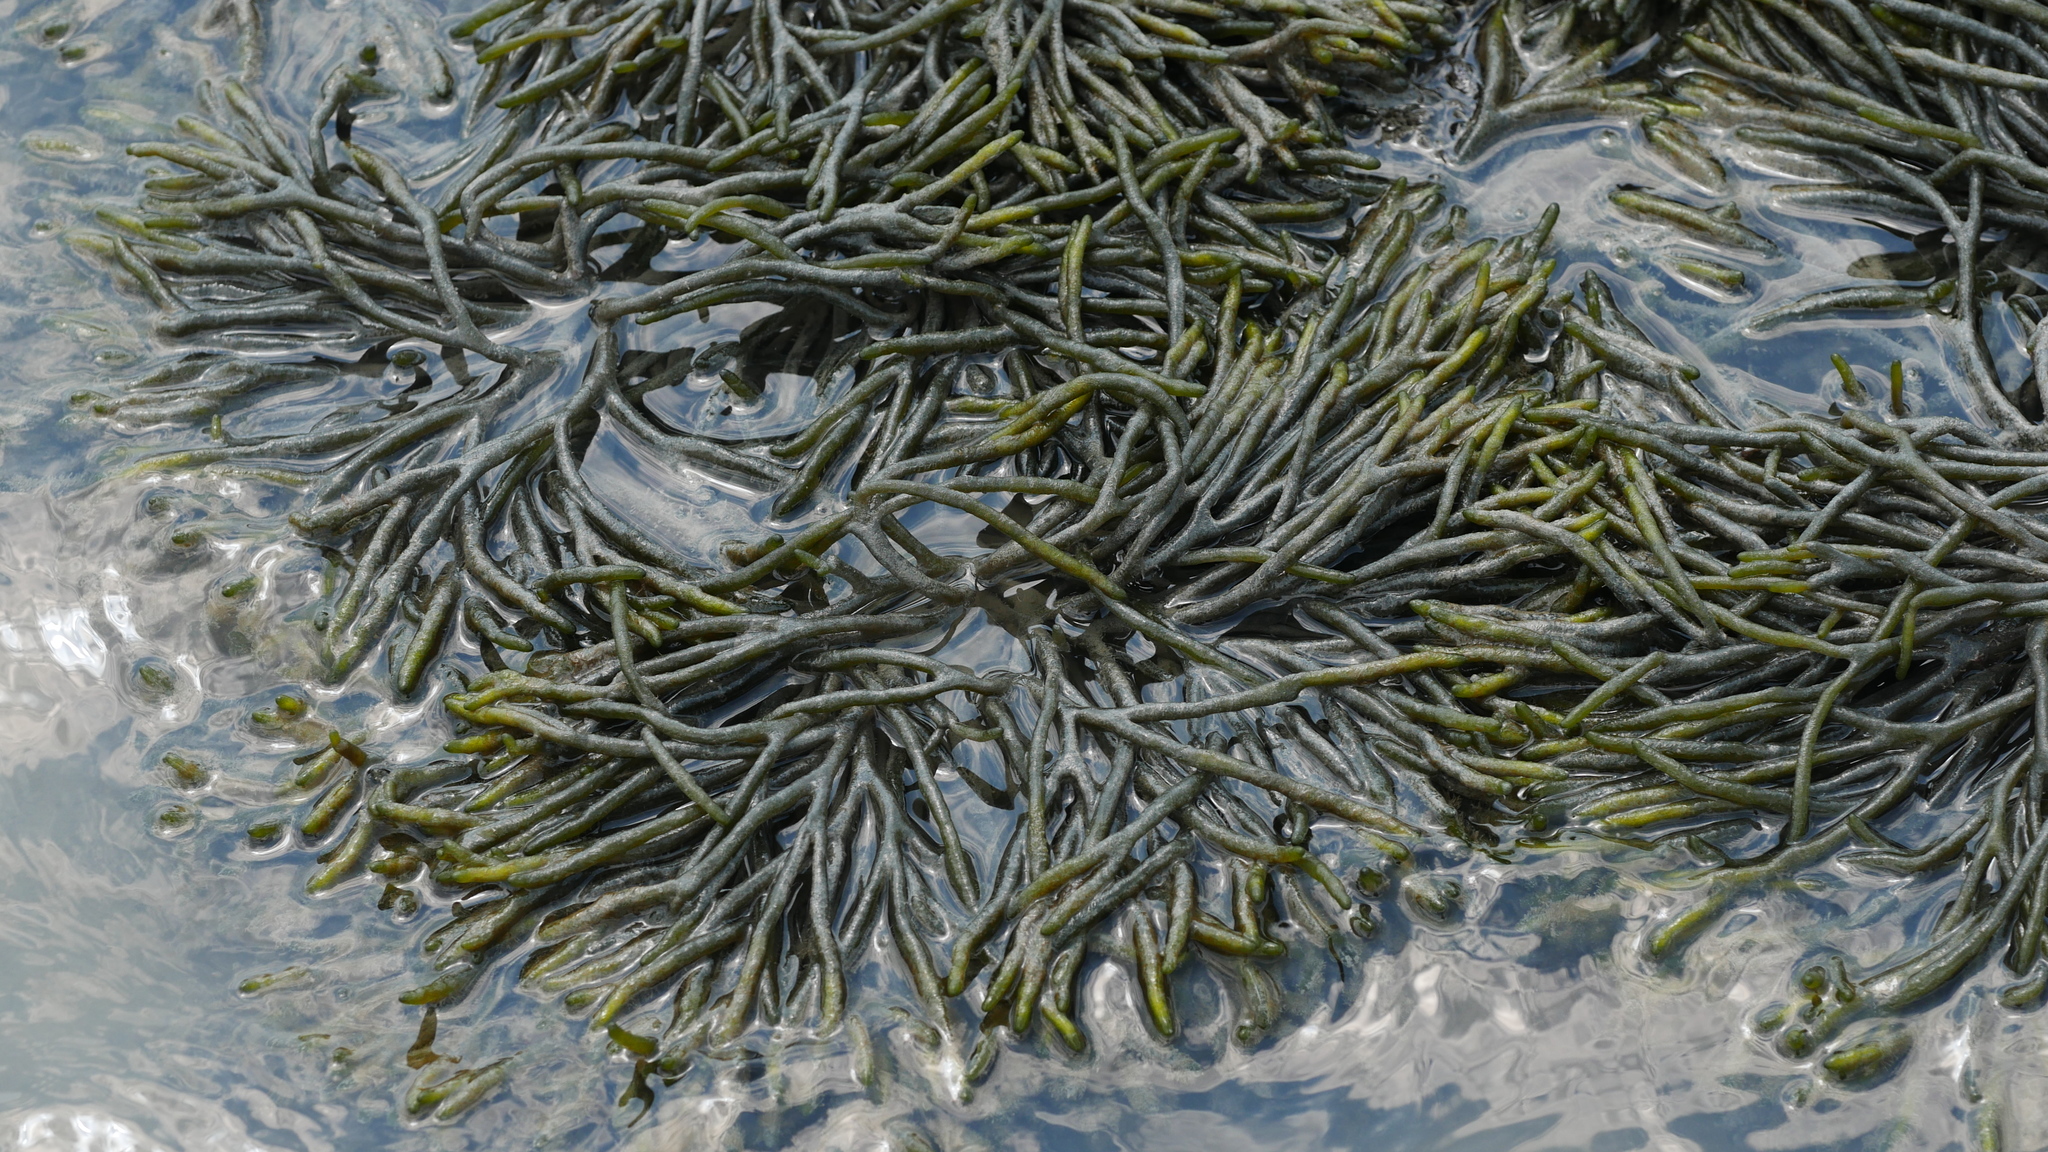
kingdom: Plantae
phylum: Chlorophyta
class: Ulvophyceae
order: Bryopsidales
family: Codiaceae
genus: Codium
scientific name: Codium fragile
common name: Dead man's fingers
